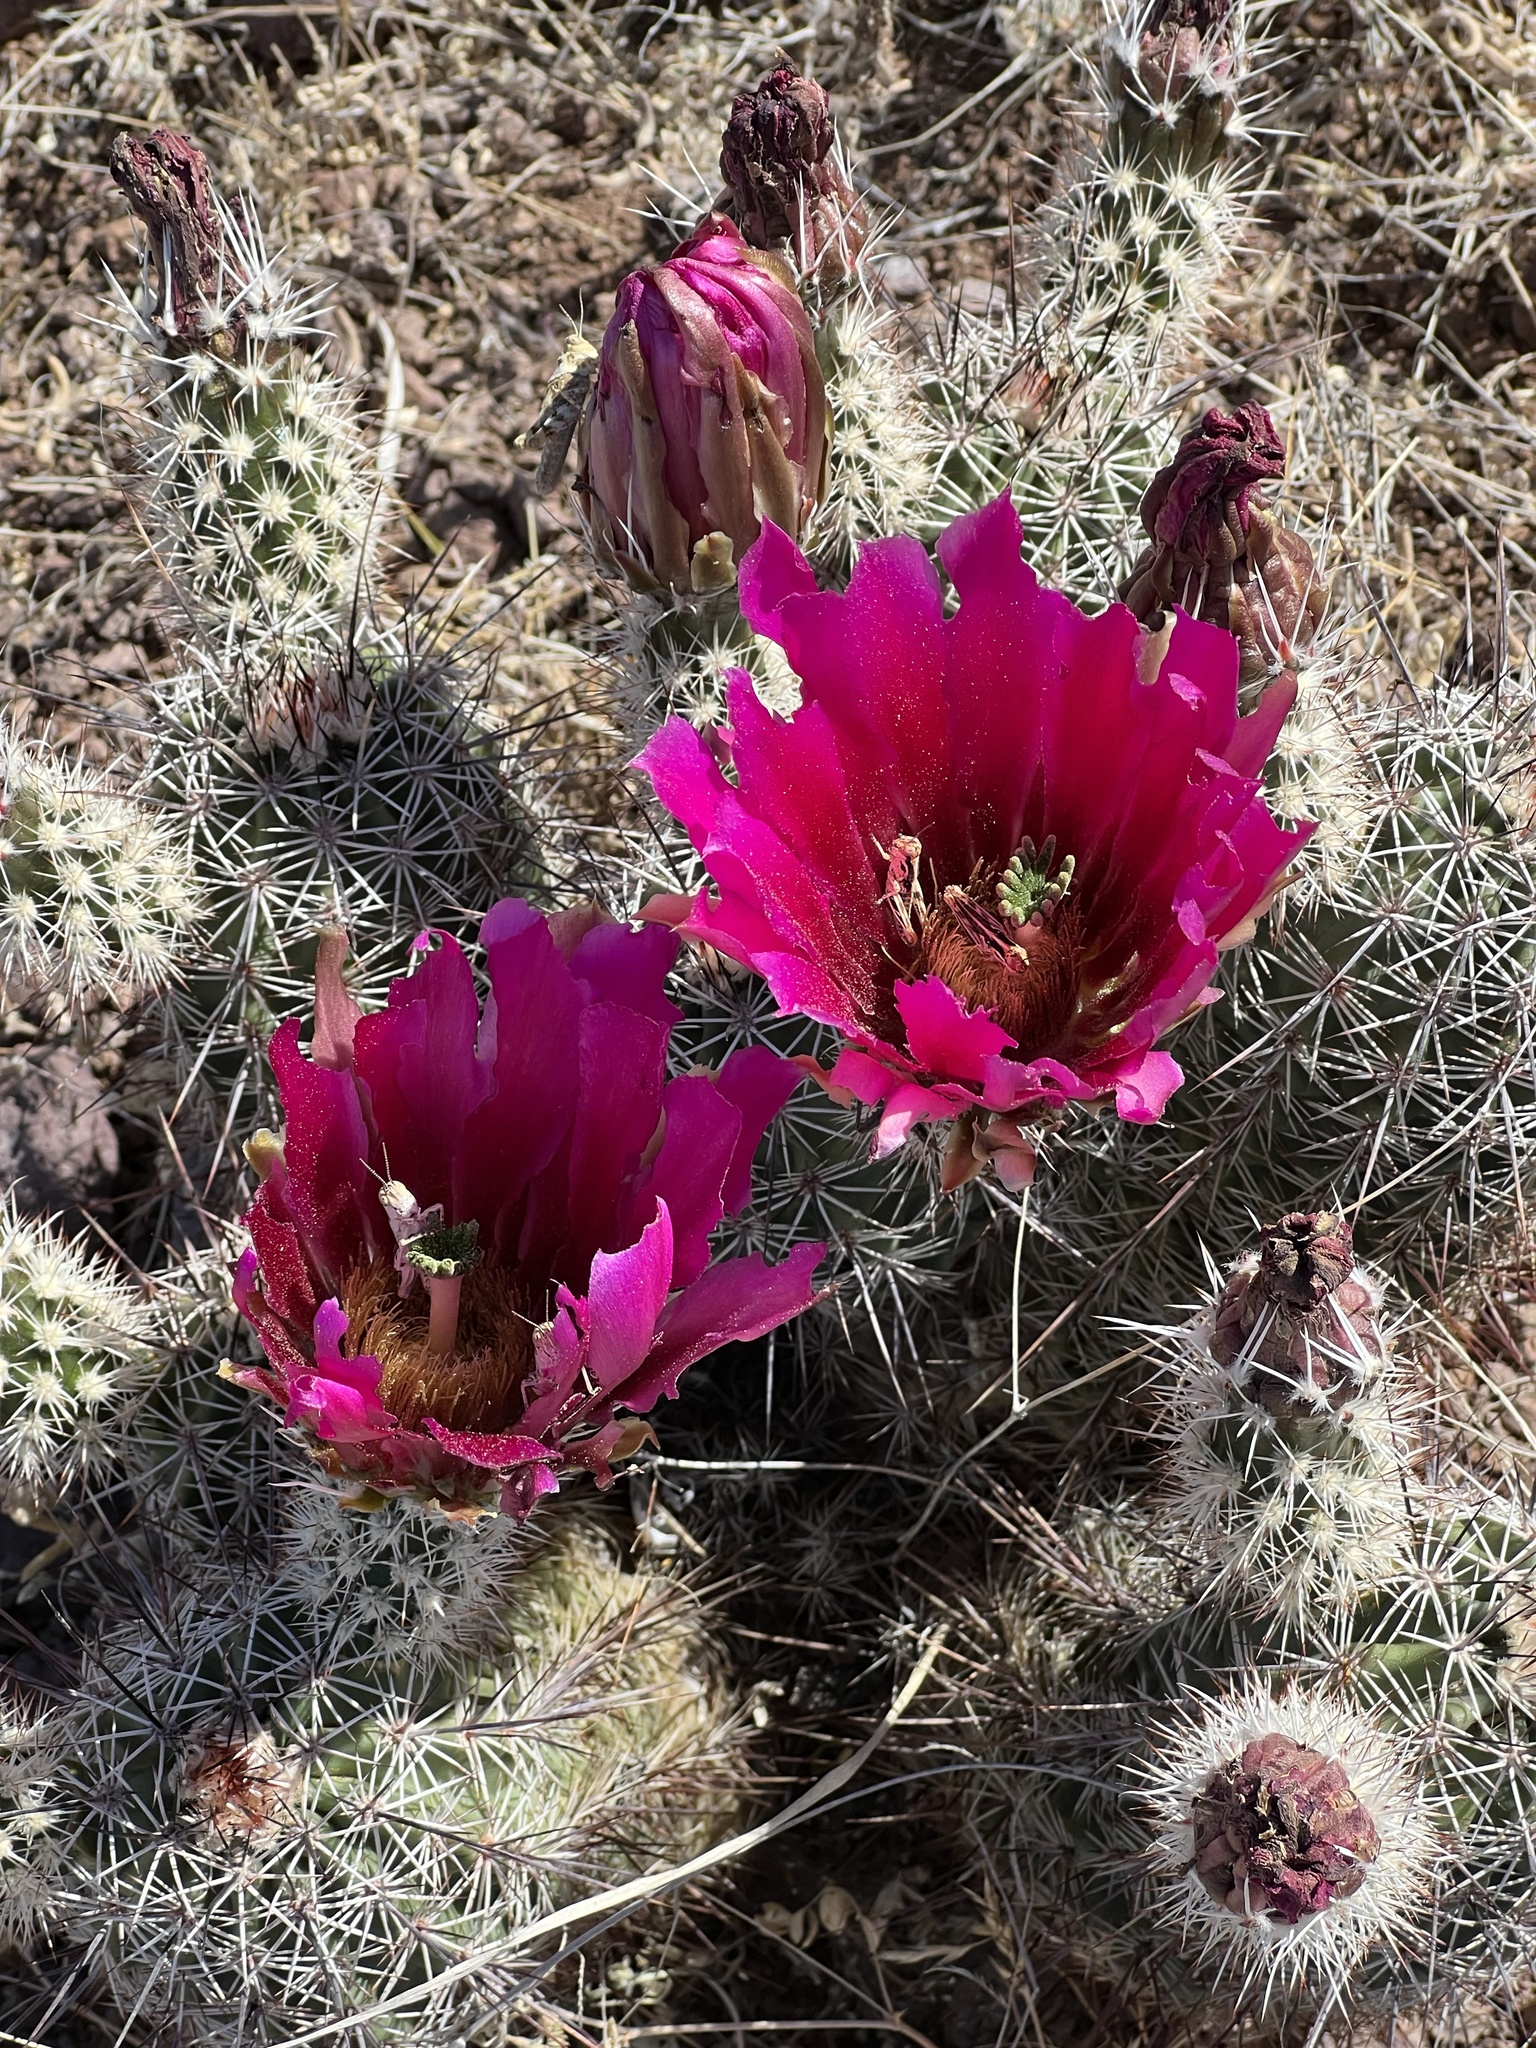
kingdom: Plantae
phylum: Tracheophyta
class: Magnoliopsida
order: Caryophyllales
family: Cactaceae
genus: Echinocereus
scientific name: Echinocereus fendleri
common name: Fendler's hedgehog cactus
